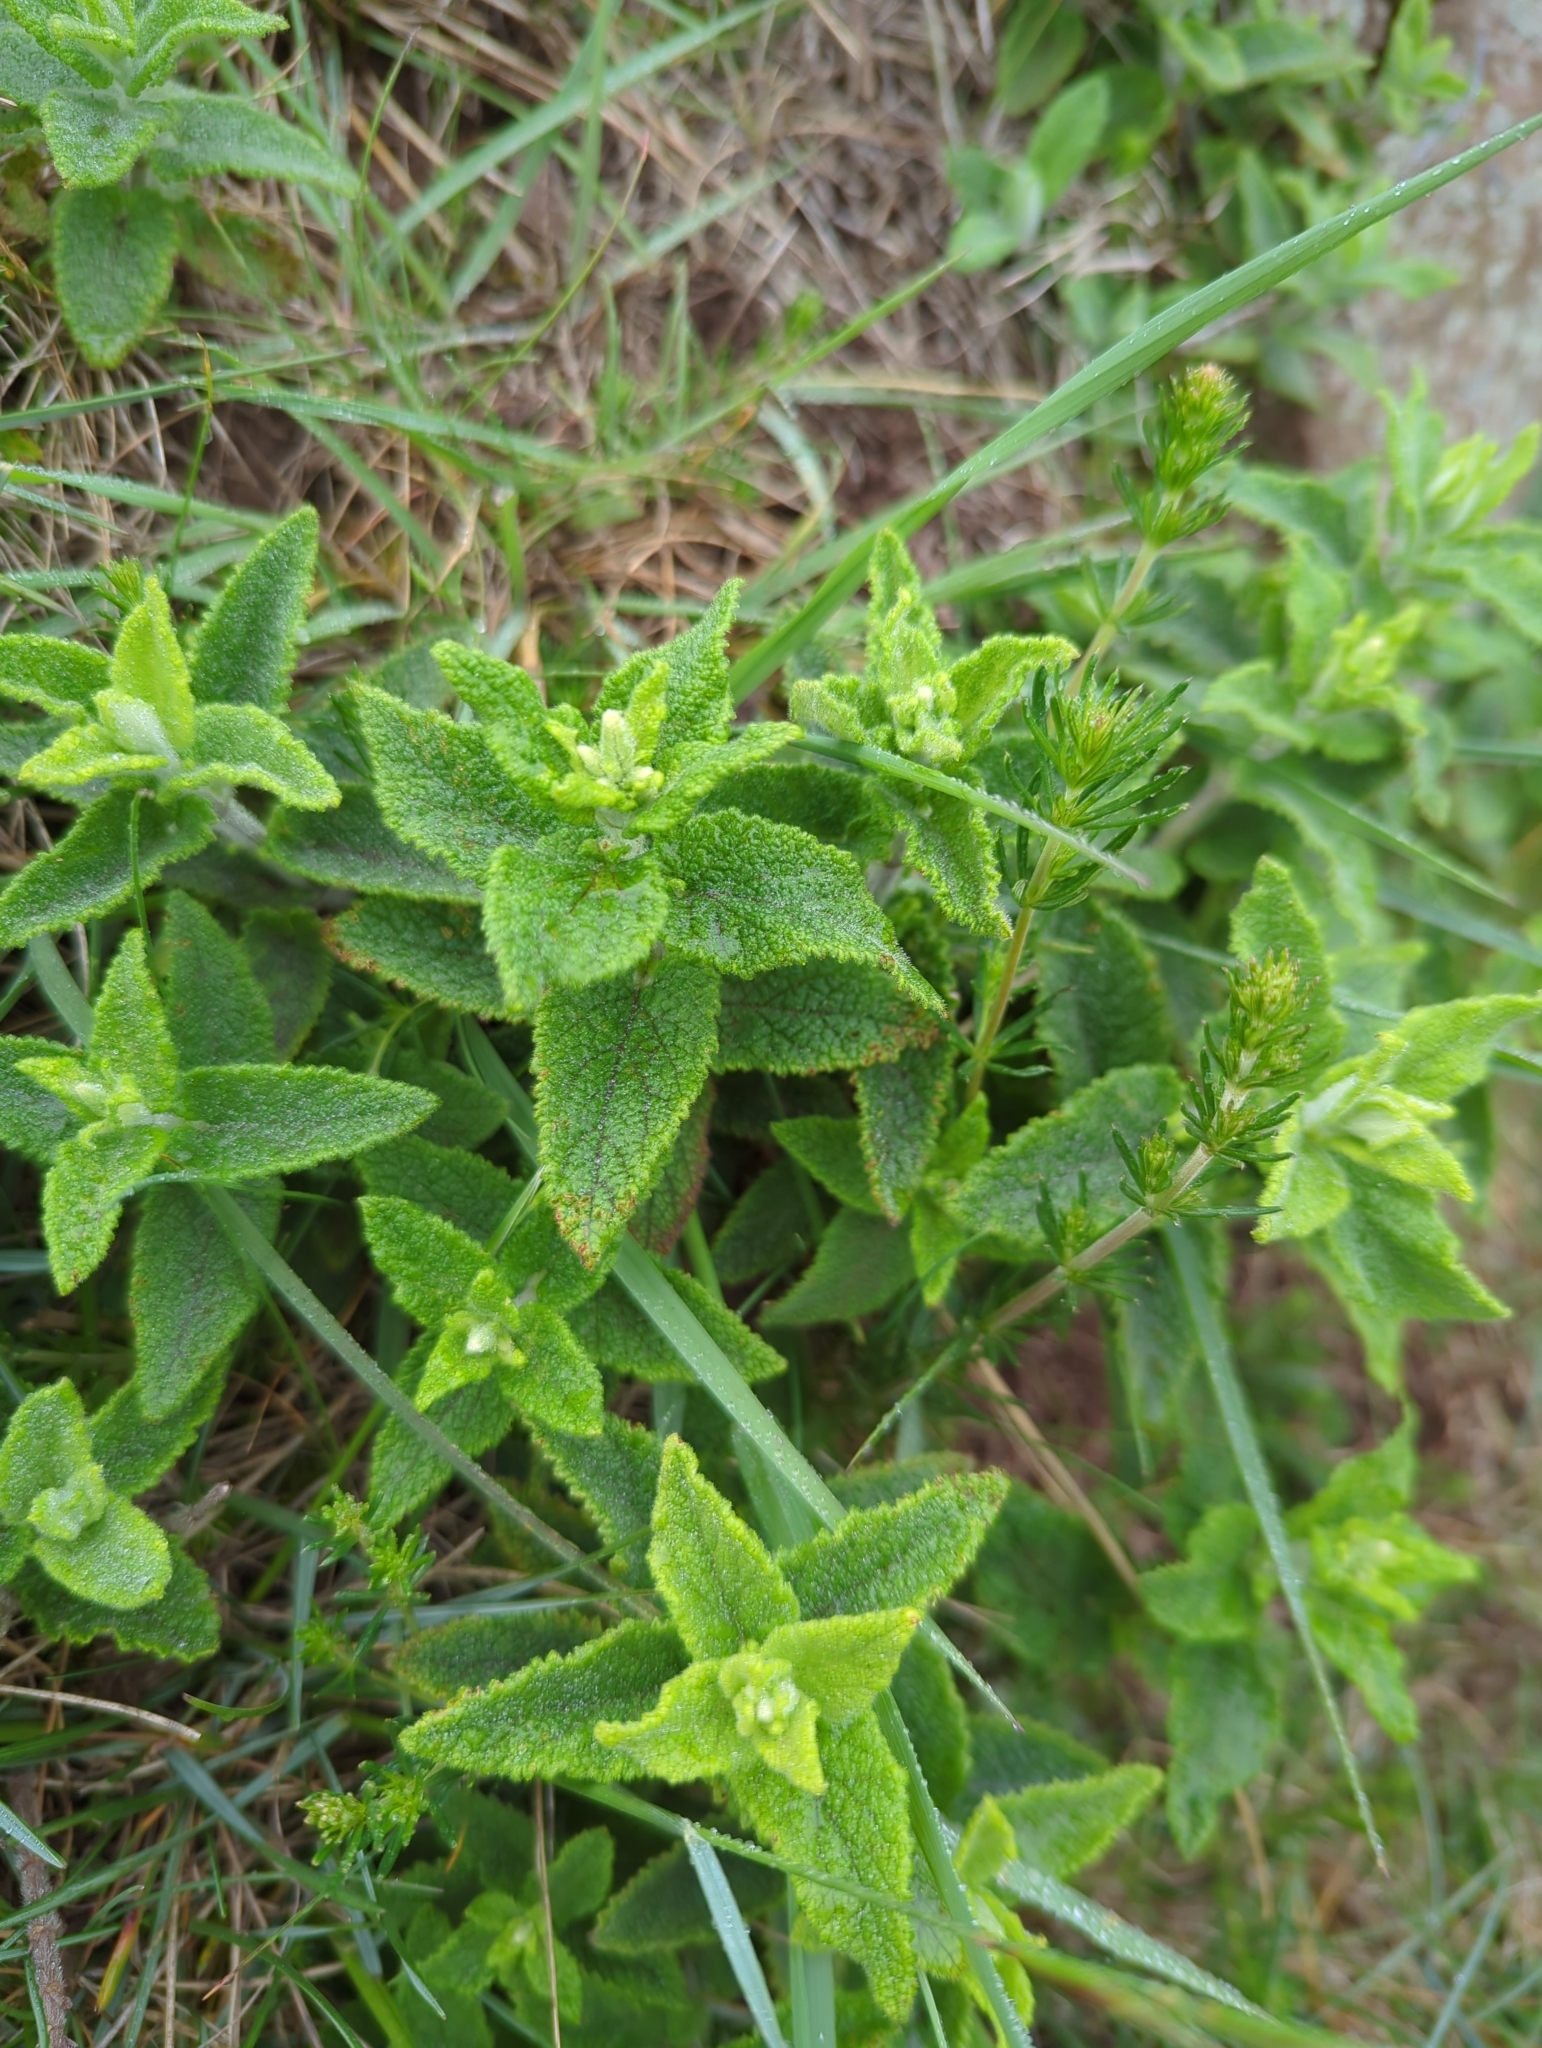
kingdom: Plantae
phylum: Tracheophyta
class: Magnoliopsida
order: Lamiales
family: Lamiaceae
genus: Teucrium
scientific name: Teucrium scorodonia
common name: Woodland germander
